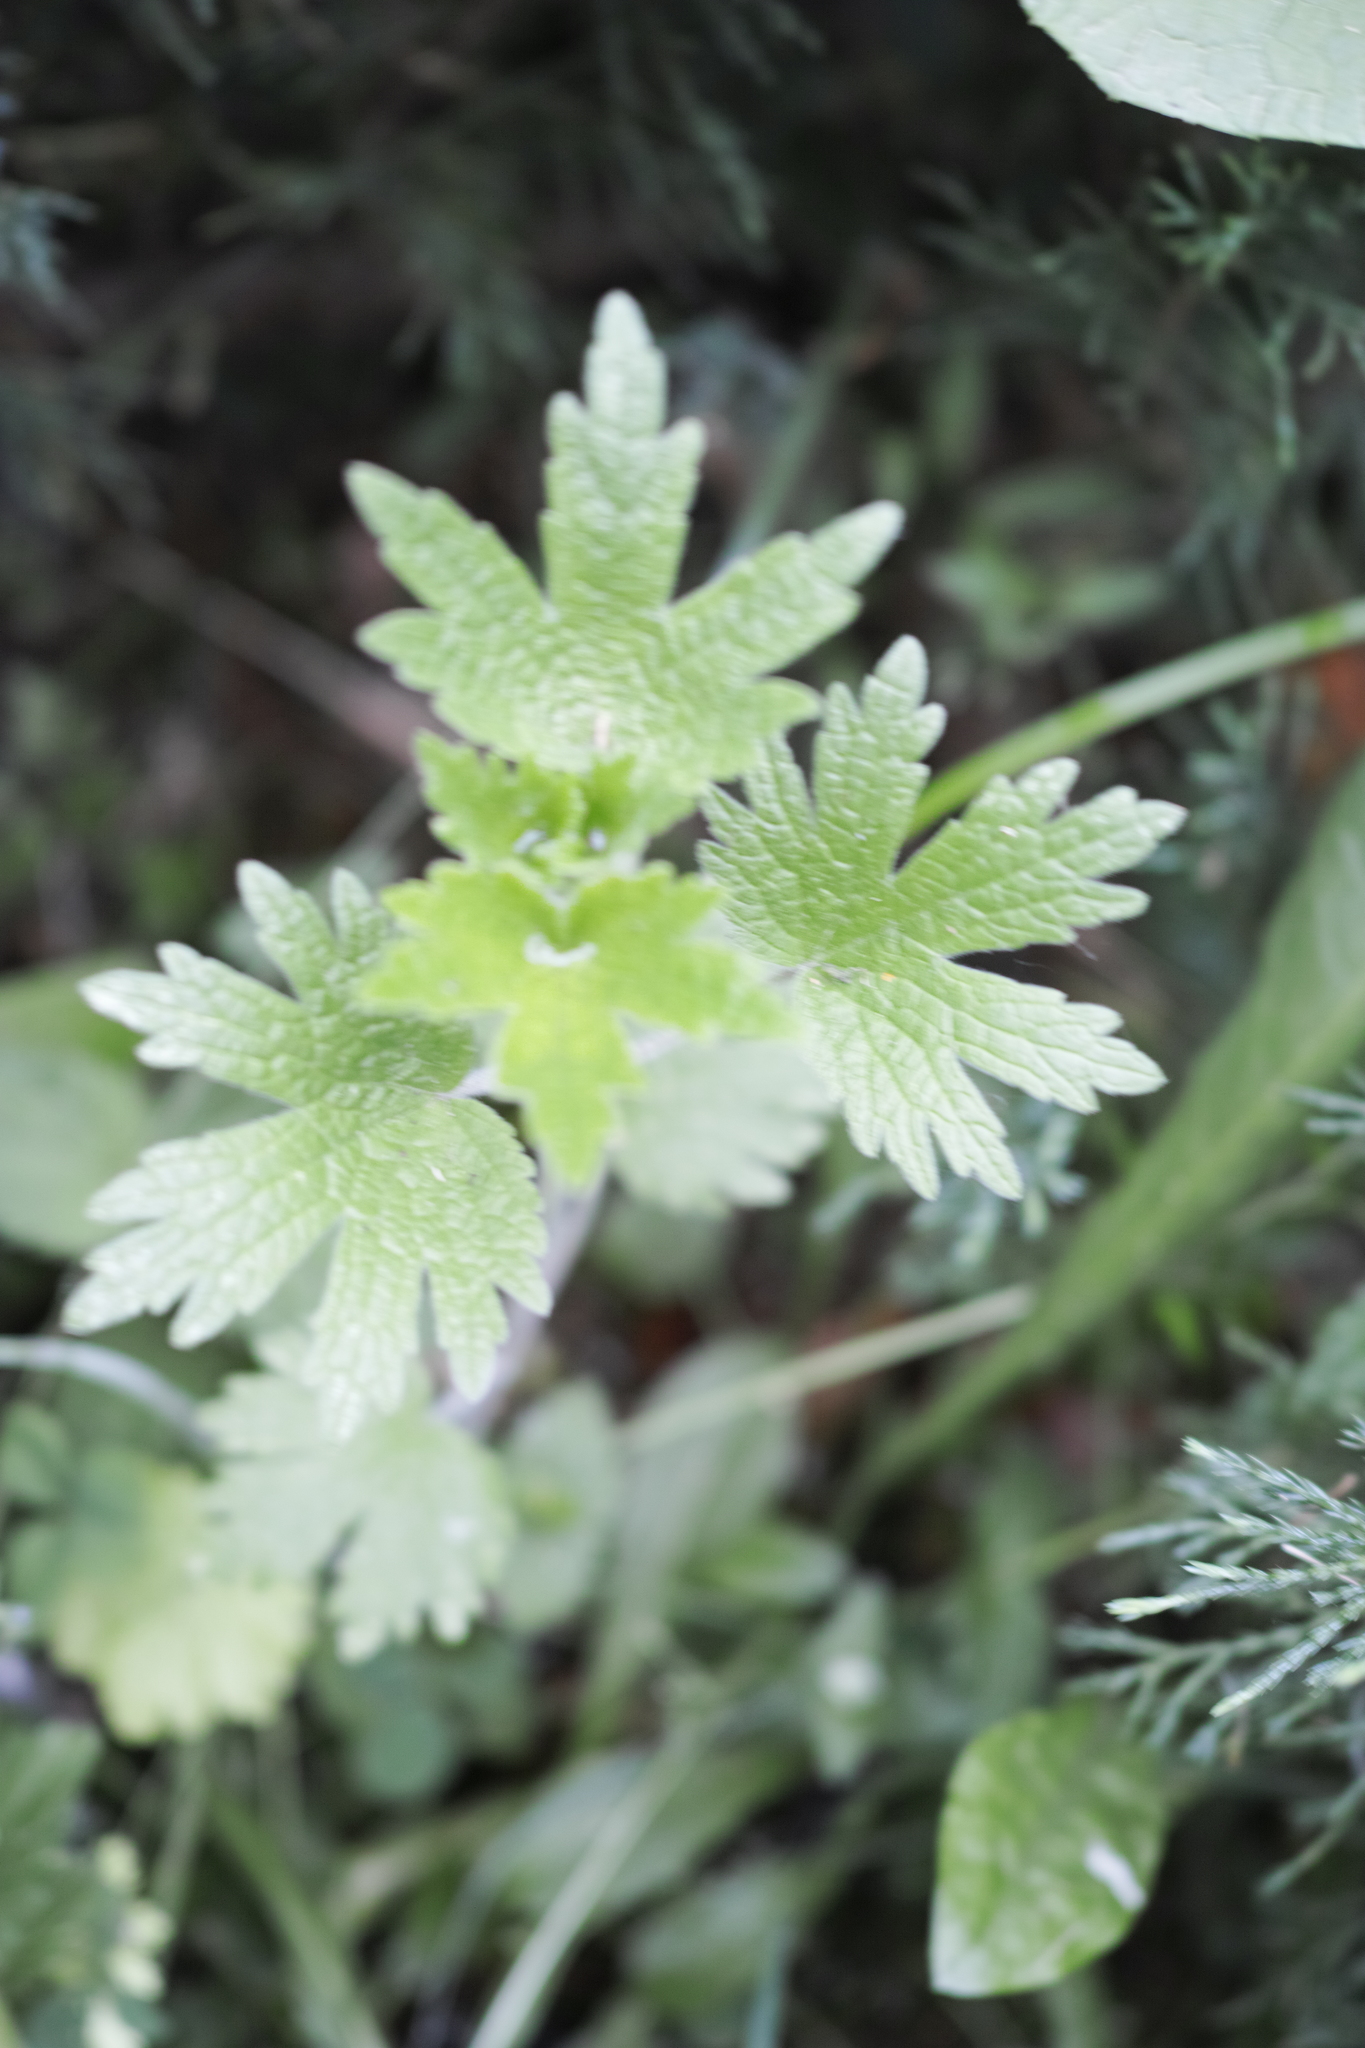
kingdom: Plantae
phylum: Tracheophyta
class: Magnoliopsida
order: Lamiales
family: Lamiaceae
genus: Leonurus
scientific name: Leonurus quinquelobatus
